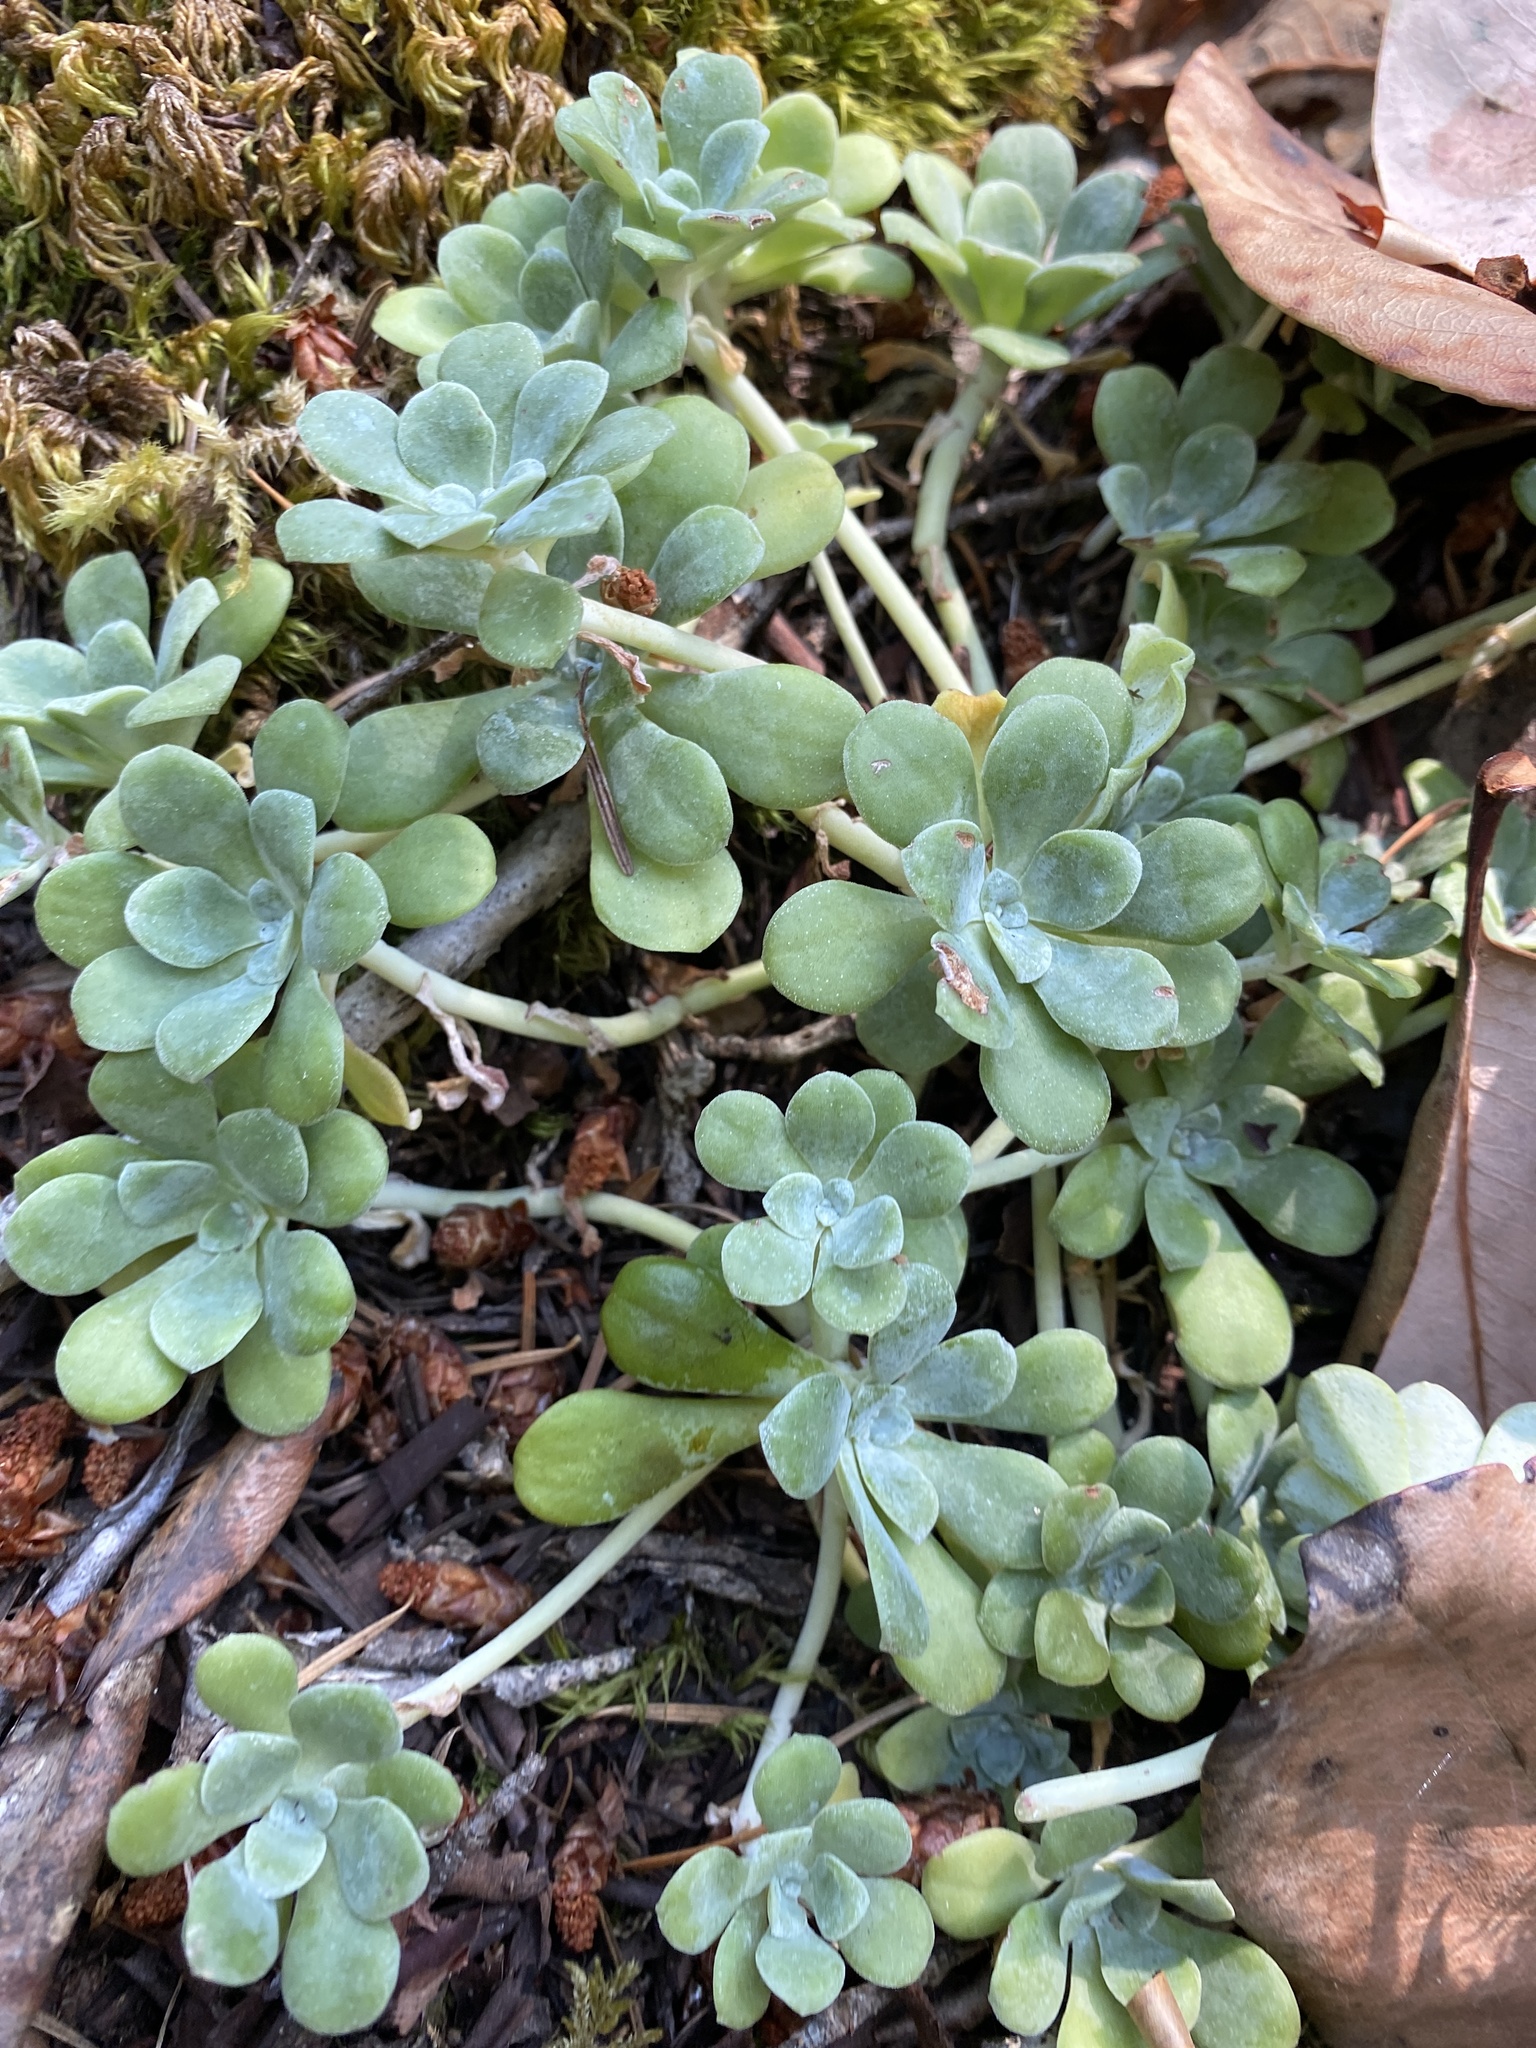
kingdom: Plantae
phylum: Tracheophyta
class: Magnoliopsida
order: Saxifragales
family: Crassulaceae
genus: Sedum
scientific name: Sedum spathulifolium
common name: Colorado stonecrop
